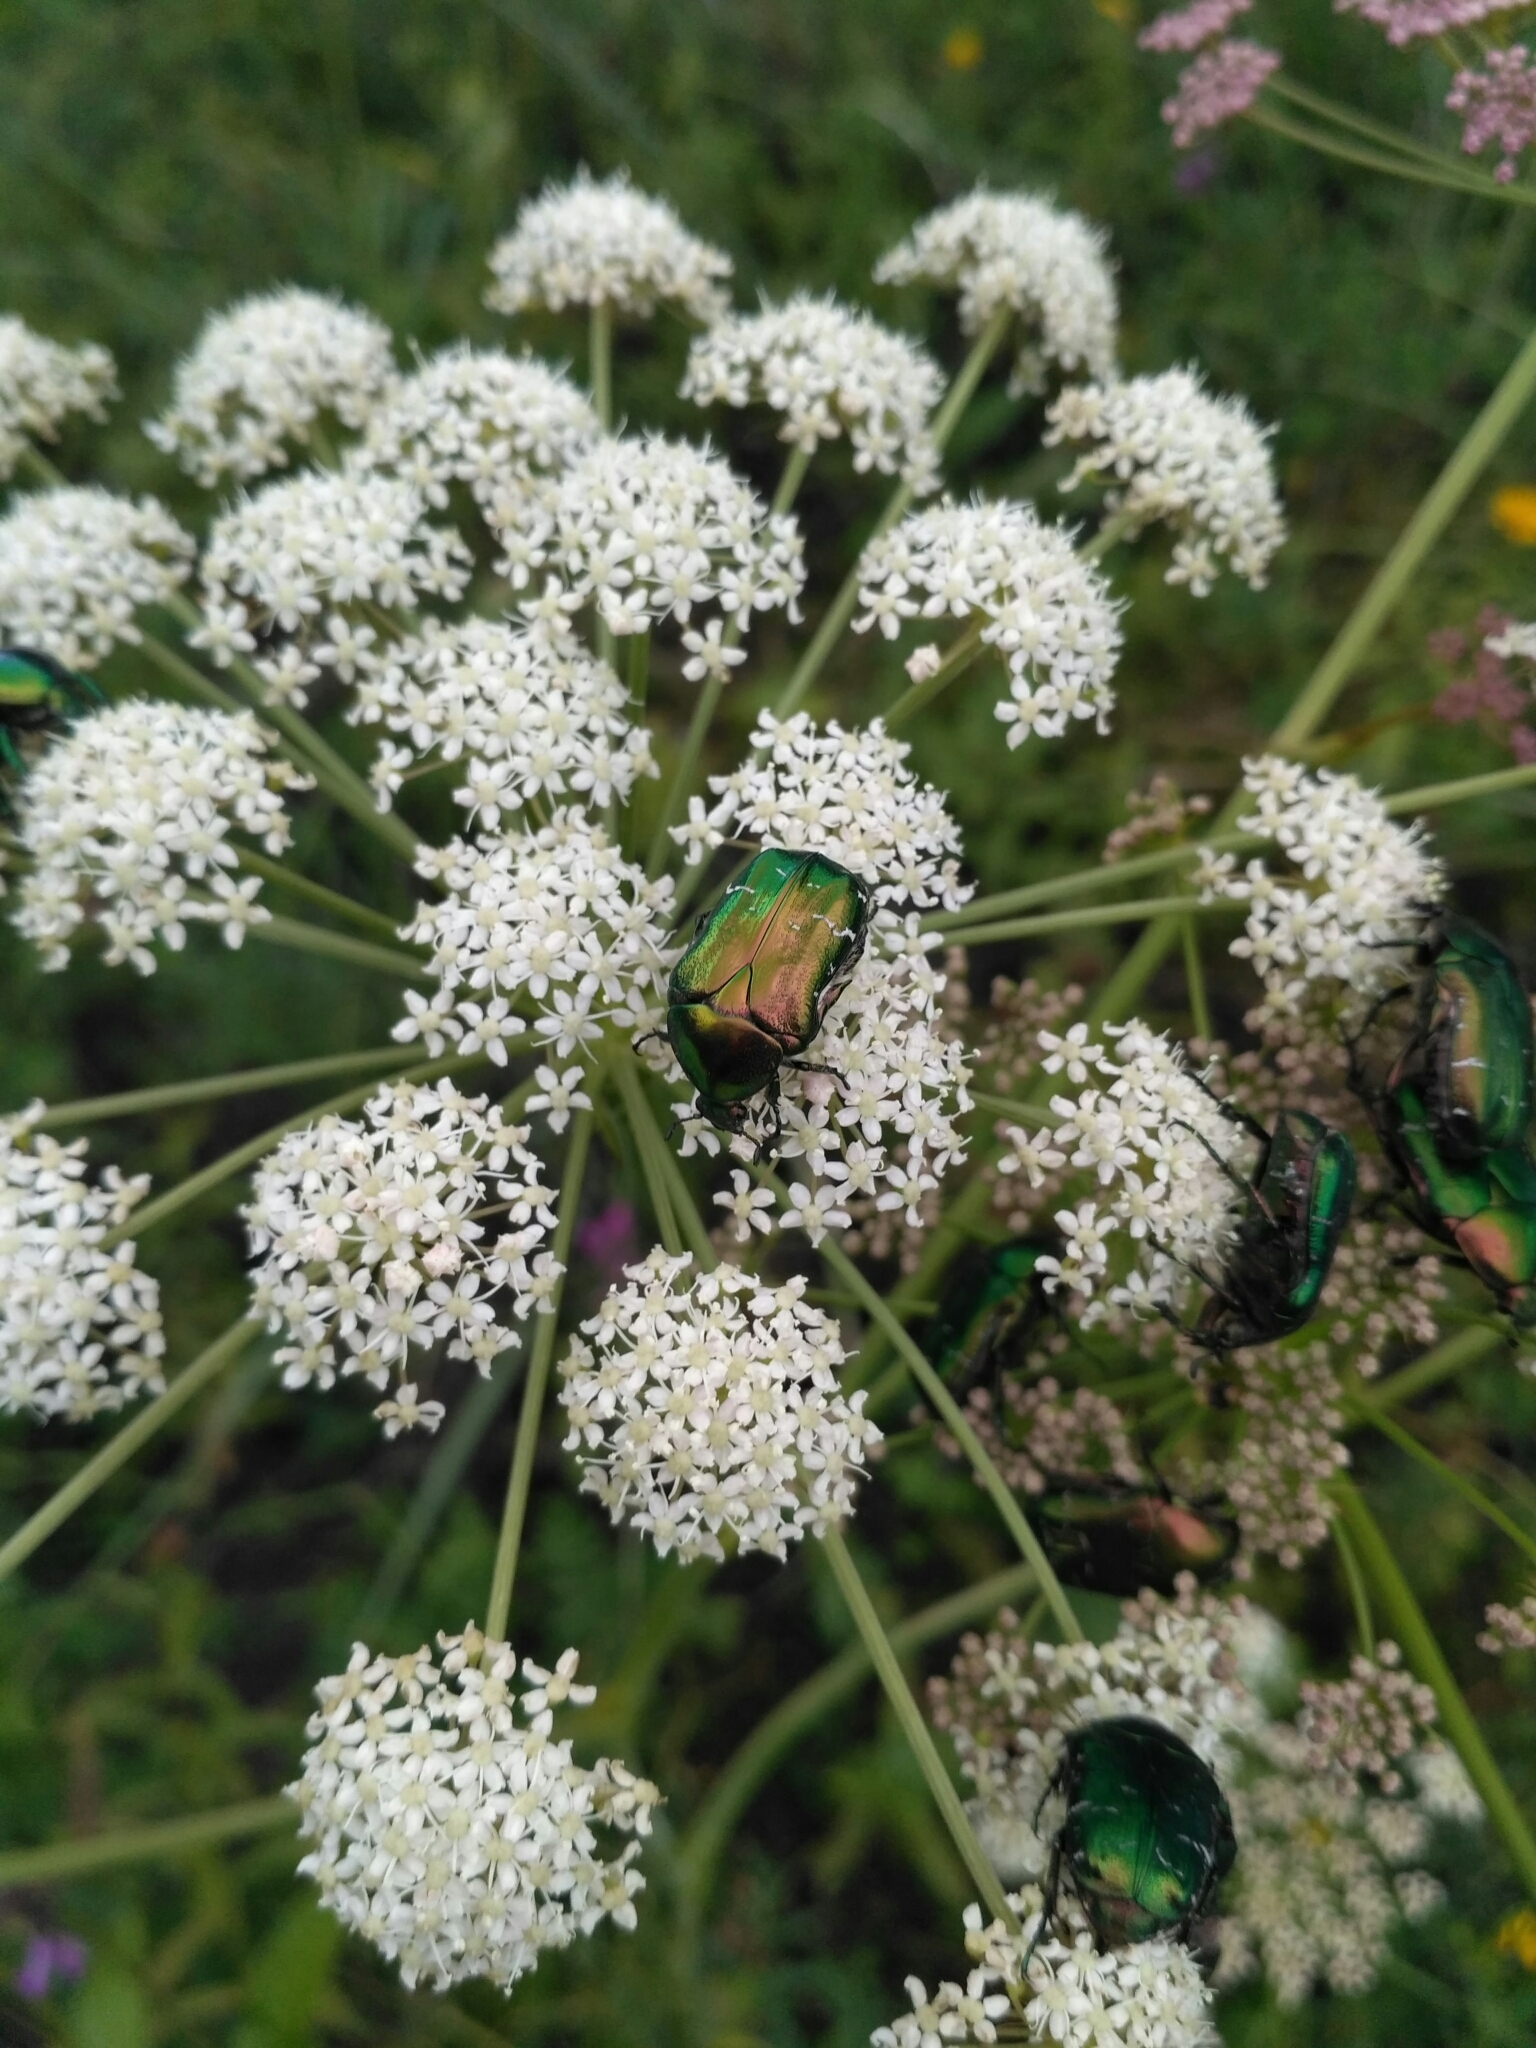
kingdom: Animalia
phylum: Arthropoda
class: Insecta
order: Coleoptera
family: Scarabaeidae
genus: Cetonia
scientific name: Cetonia aurata
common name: Rose chafer
